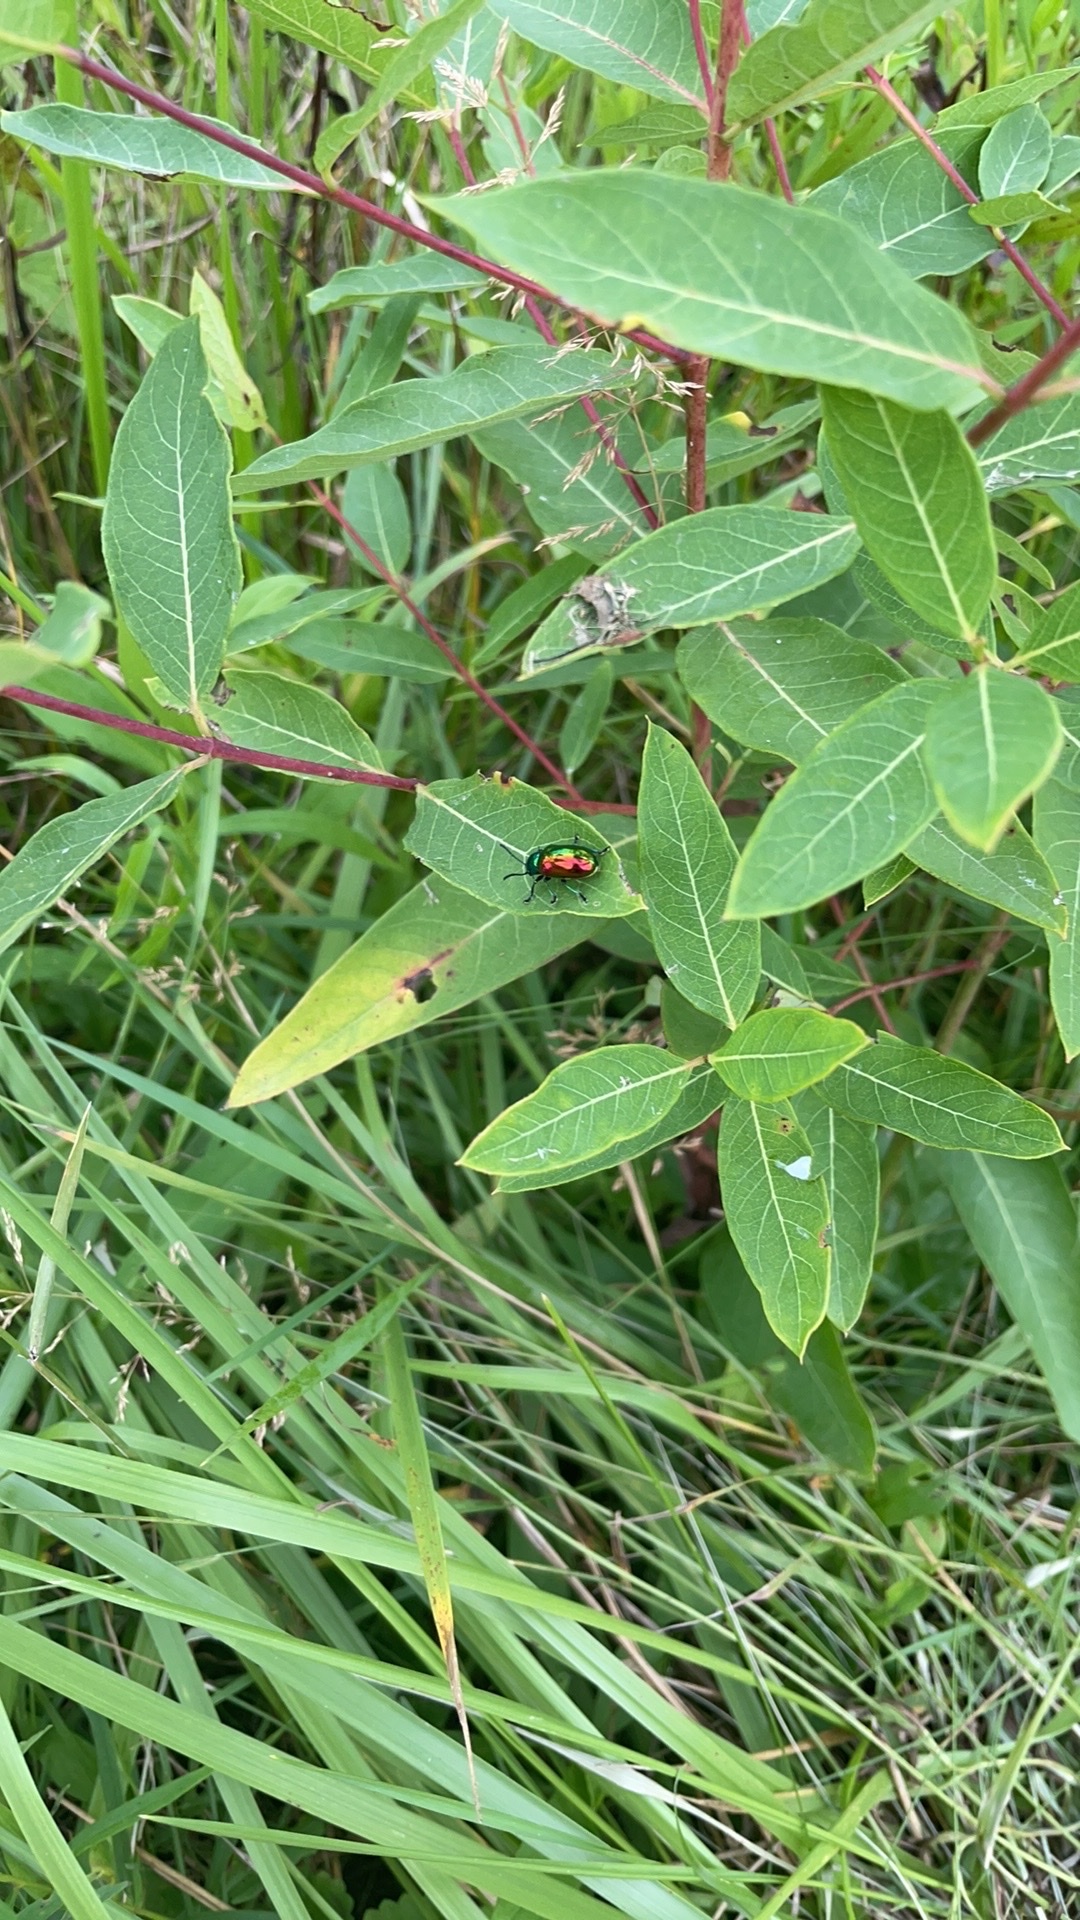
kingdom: Animalia
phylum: Arthropoda
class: Insecta
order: Coleoptera
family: Chrysomelidae
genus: Chrysochus
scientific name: Chrysochus auratus
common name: Dogbane leaf beetle
